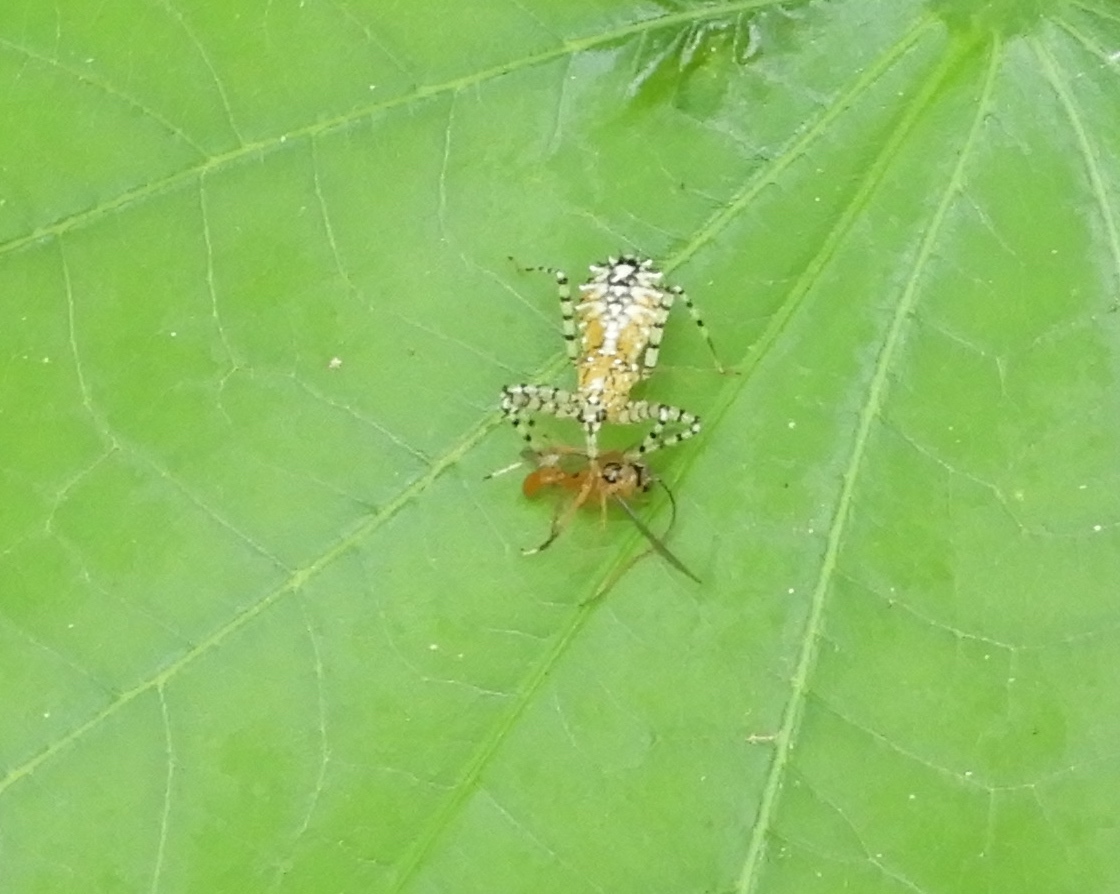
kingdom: Animalia
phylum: Arthropoda
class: Insecta
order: Hemiptera
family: Reduviidae
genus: Pselliopus
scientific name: Pselliopus
